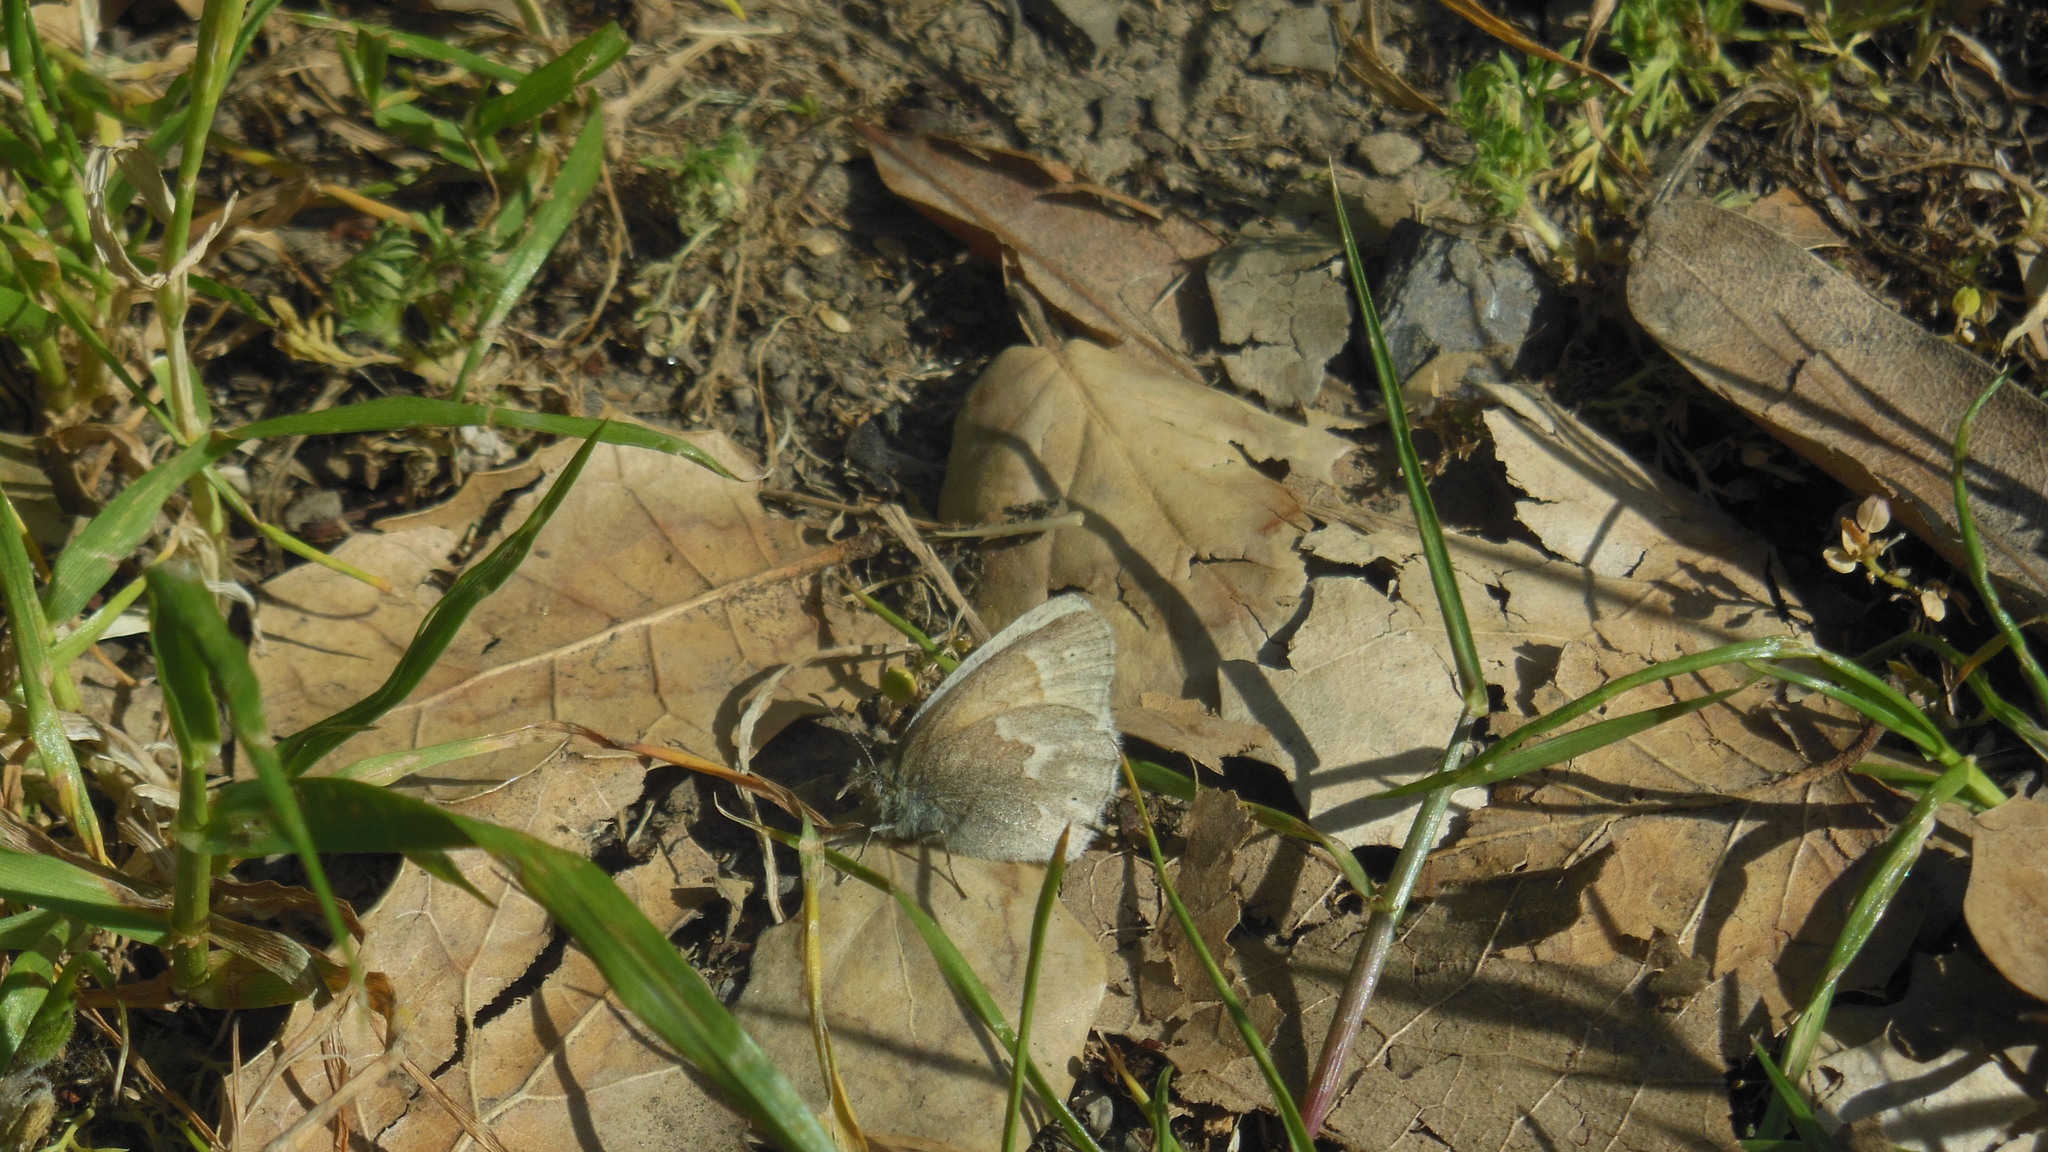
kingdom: Animalia
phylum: Arthropoda
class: Insecta
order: Lepidoptera
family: Nymphalidae
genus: Coenonympha
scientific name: Coenonympha california
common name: Common ringlet
